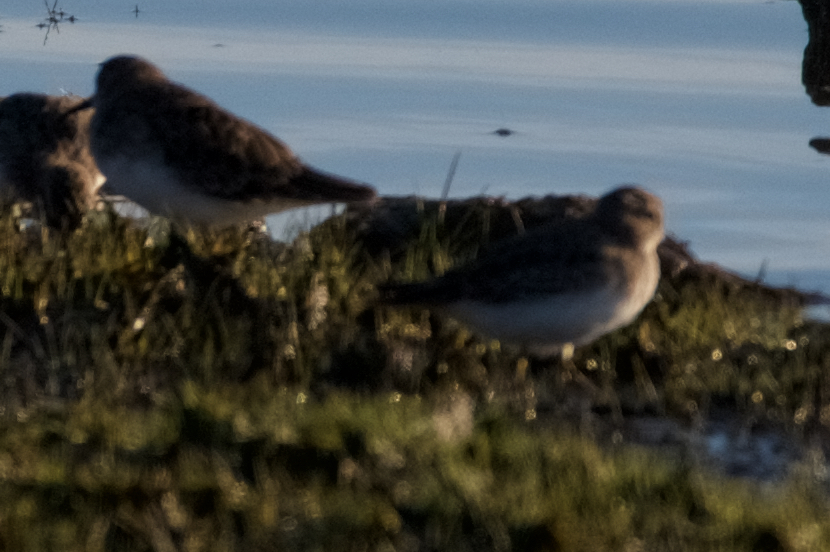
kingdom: Animalia
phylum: Chordata
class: Aves
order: Charadriiformes
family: Scolopacidae
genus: Calidris
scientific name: Calidris minutilla
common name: Least sandpiper
